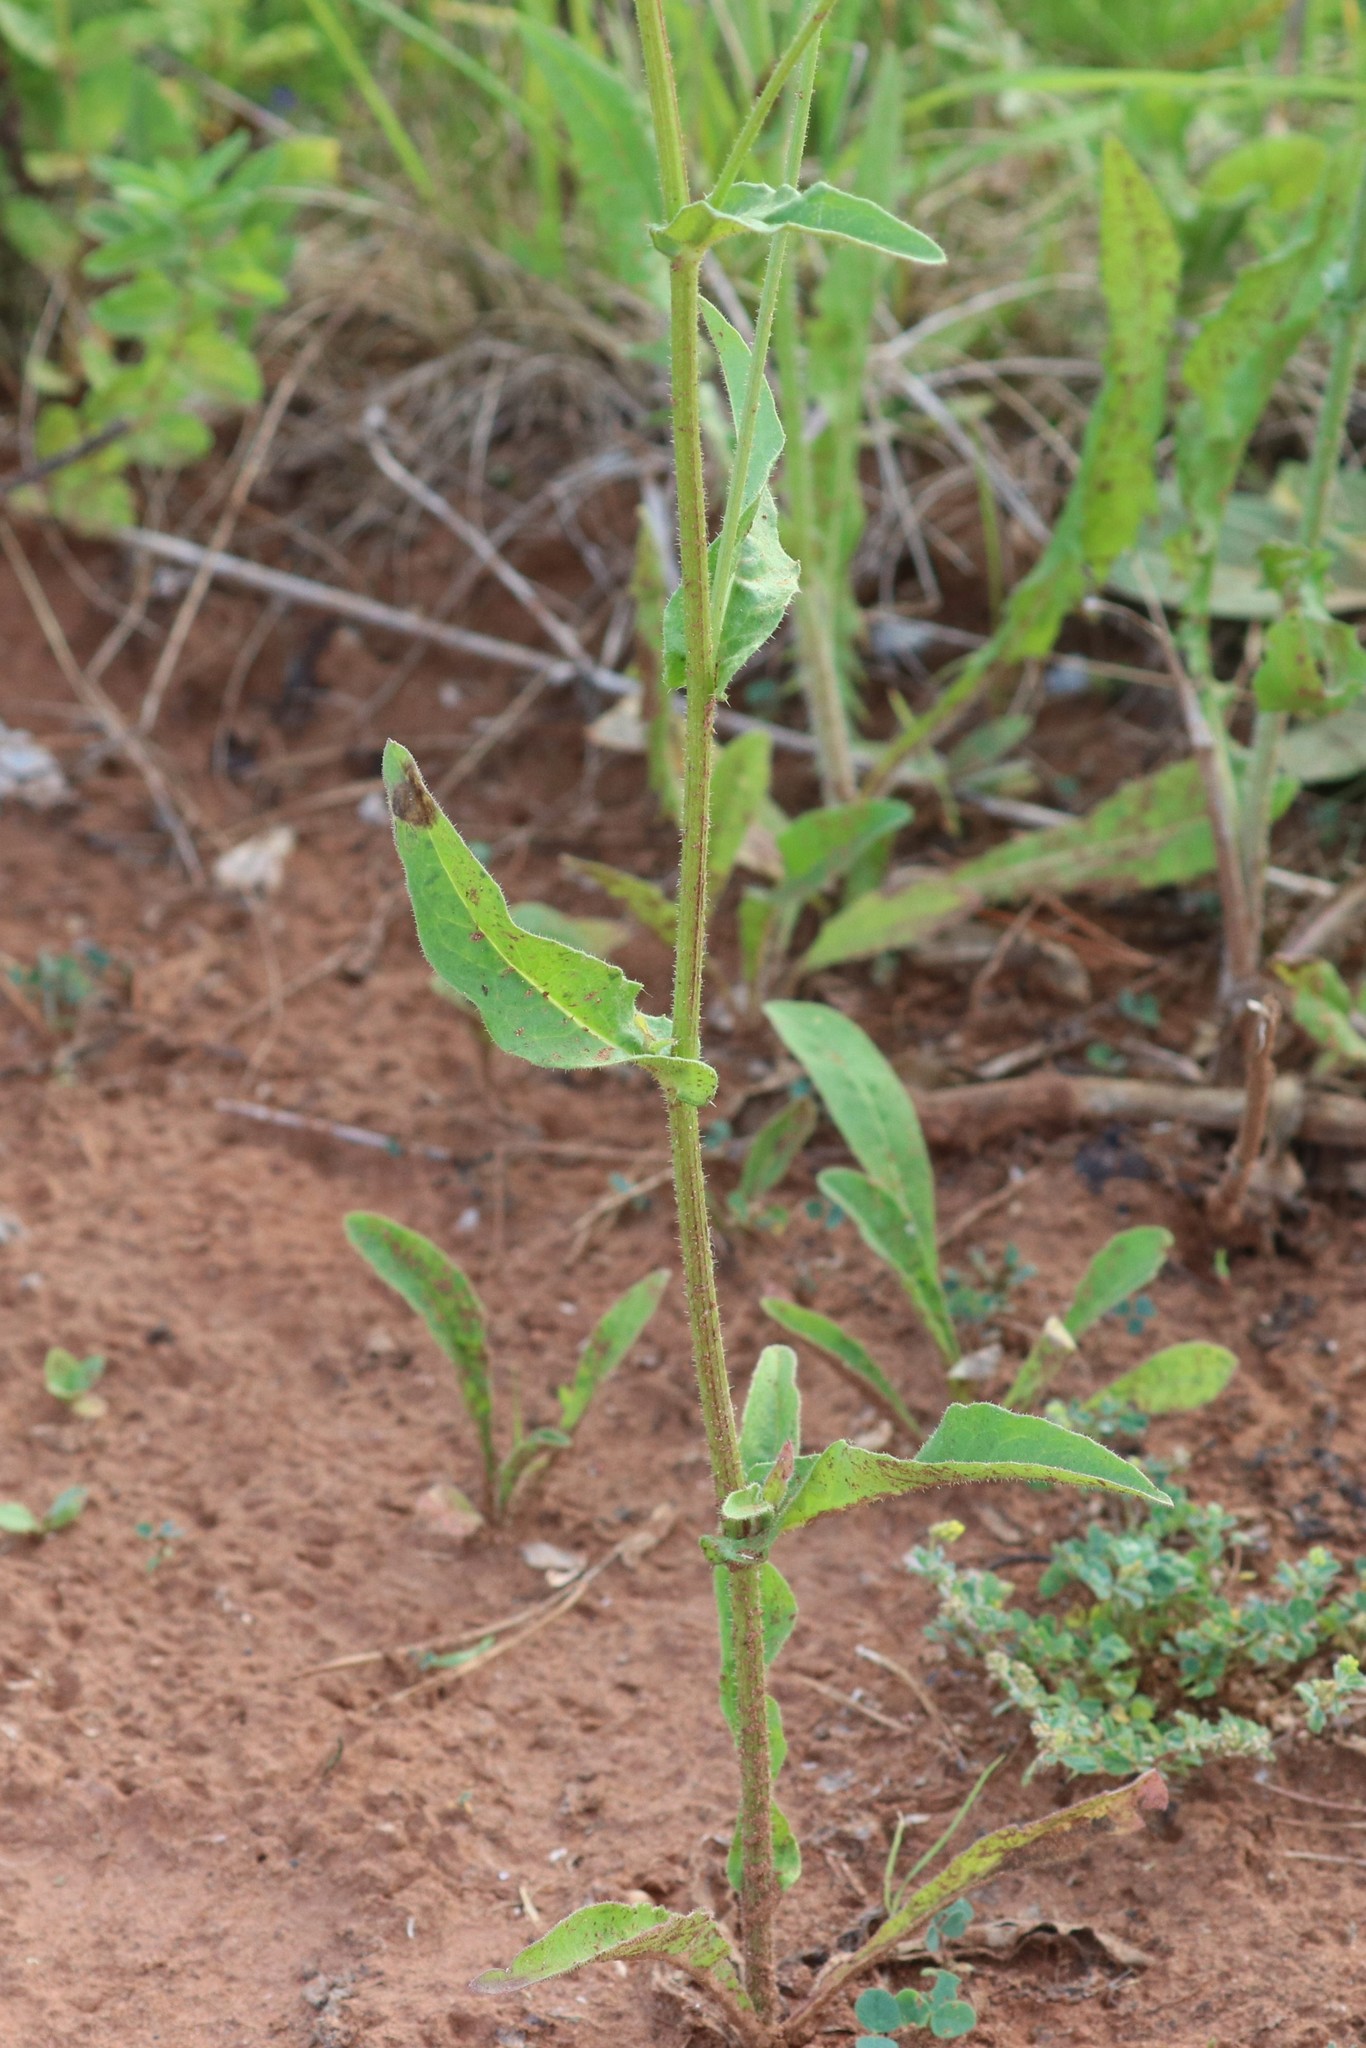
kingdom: Plantae
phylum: Tracheophyta
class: Magnoliopsida
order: Asterales
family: Asteraceae
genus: Picris
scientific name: Picris hieracioides
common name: Hawkweed oxtongue
